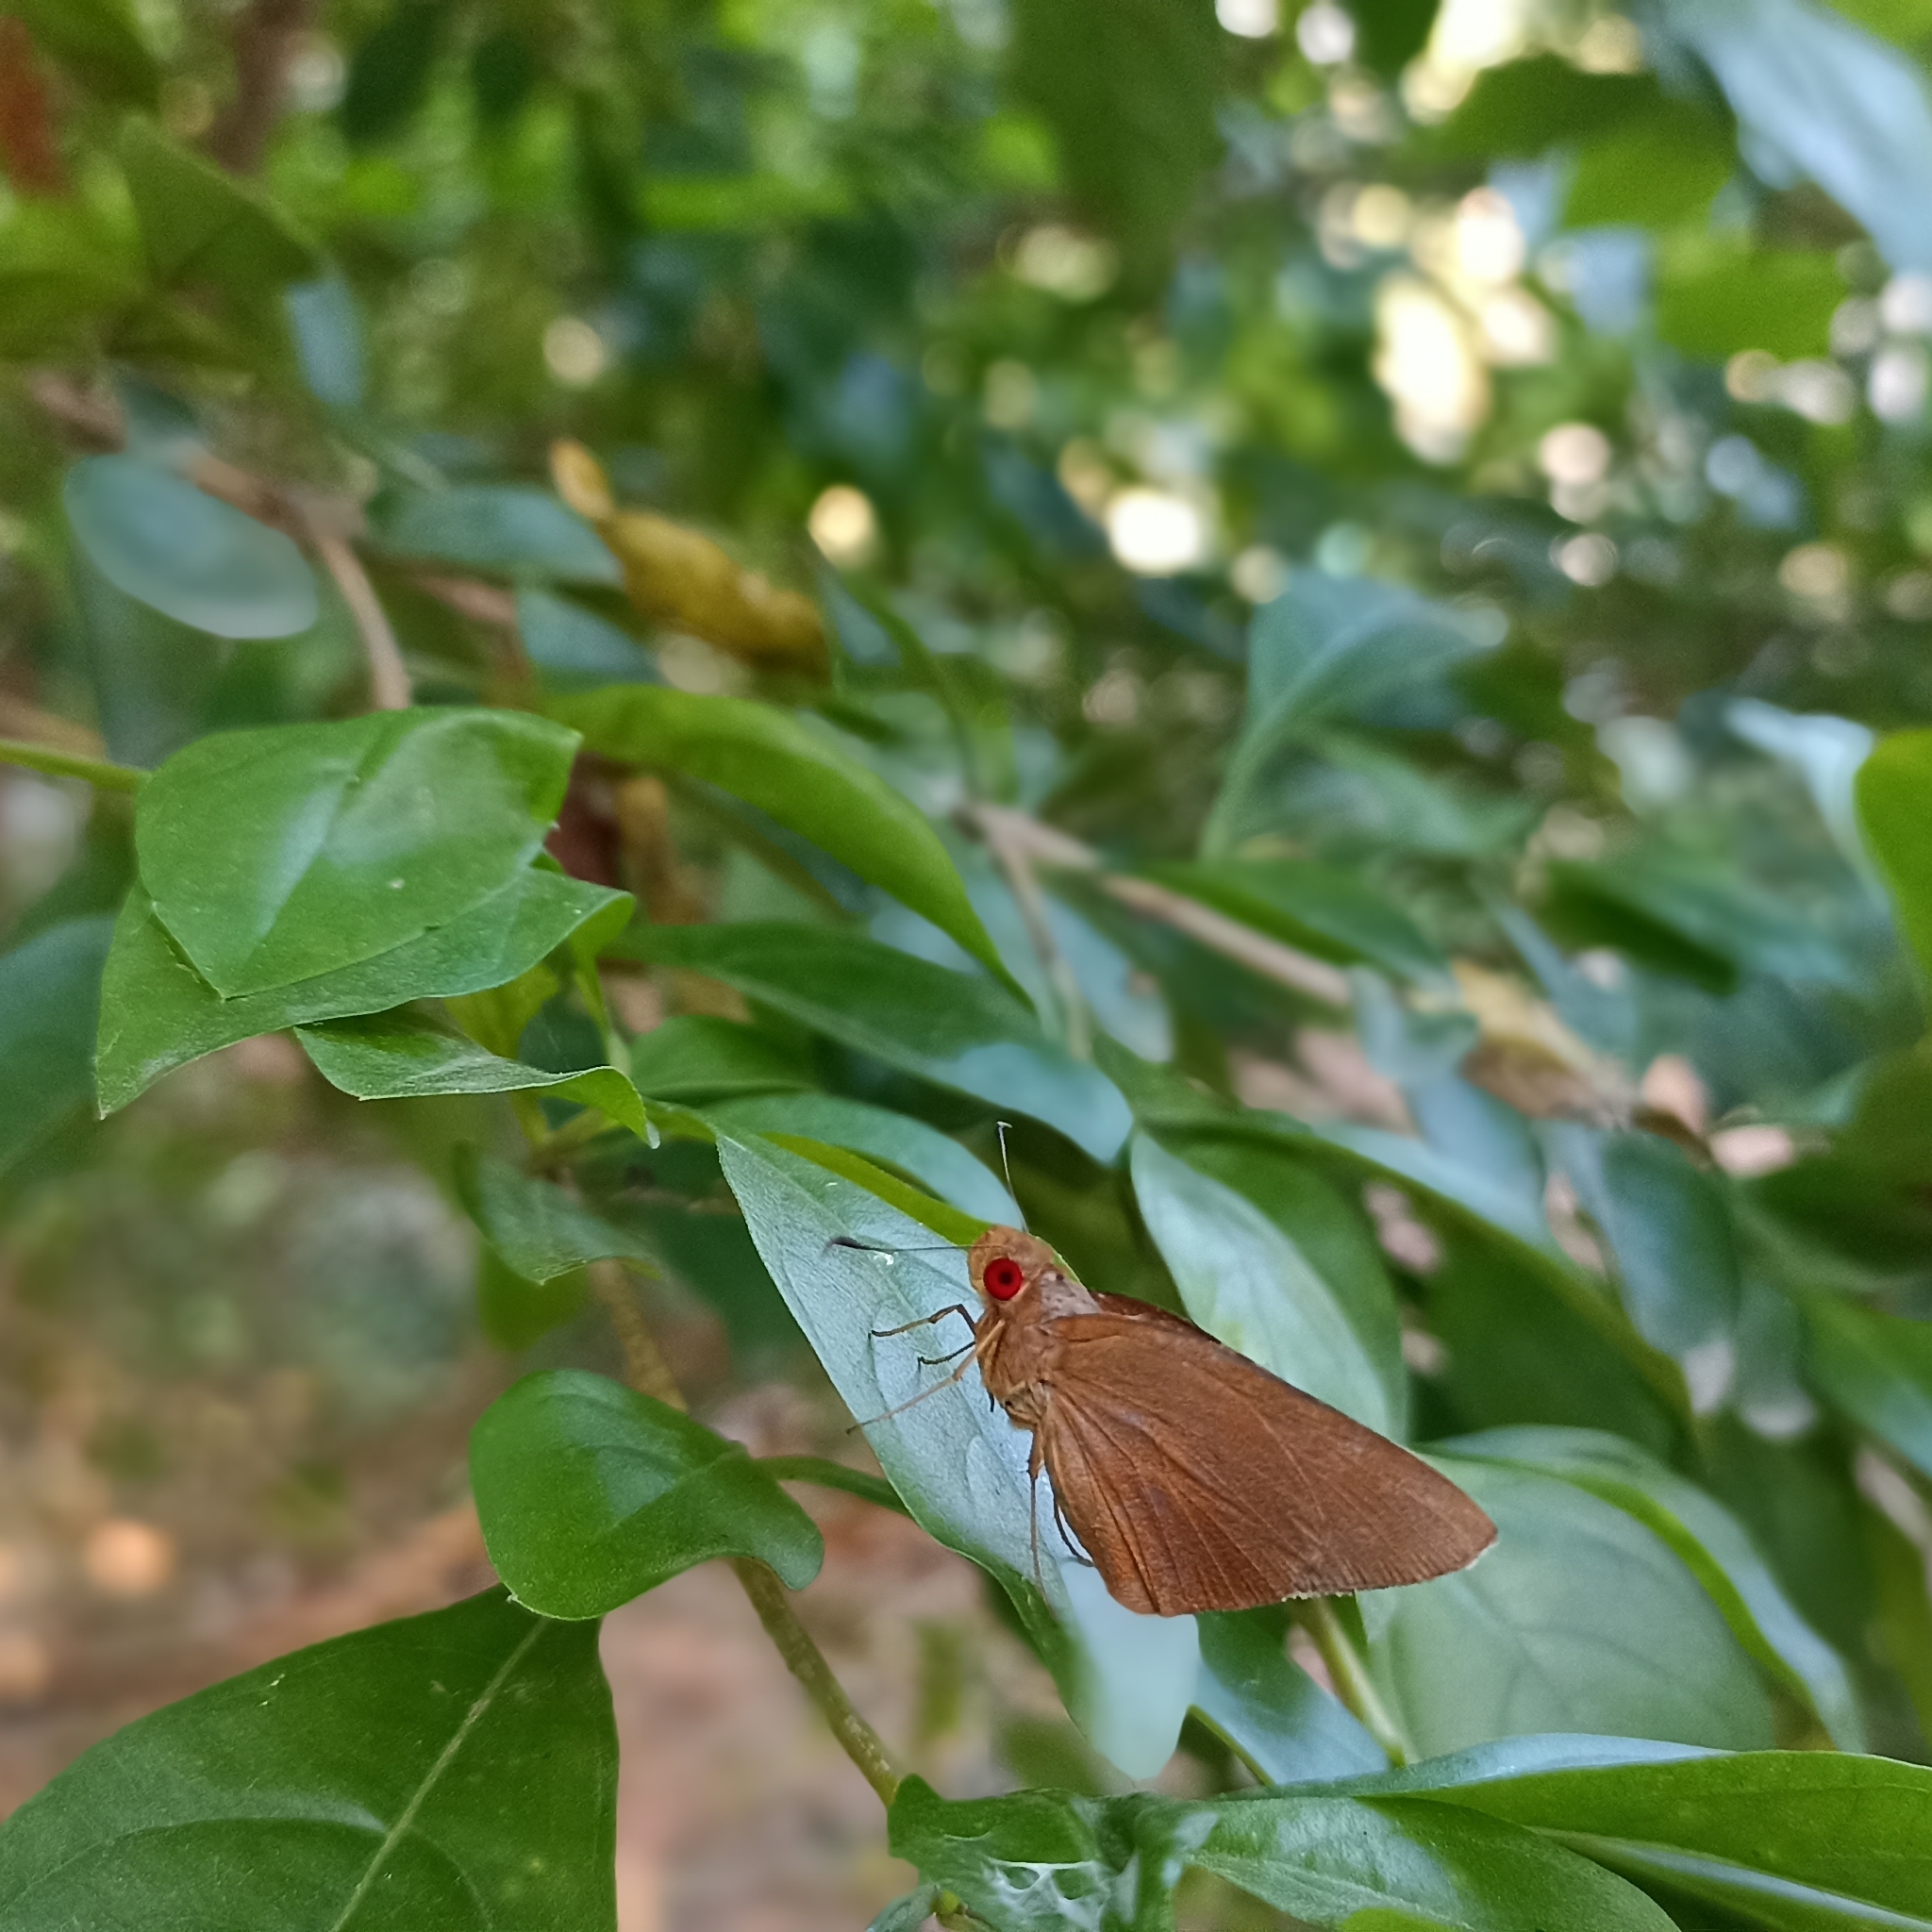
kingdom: Animalia
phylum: Arthropoda
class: Insecta
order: Lepidoptera
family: Hesperiidae
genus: Matapa
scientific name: Matapa aria
